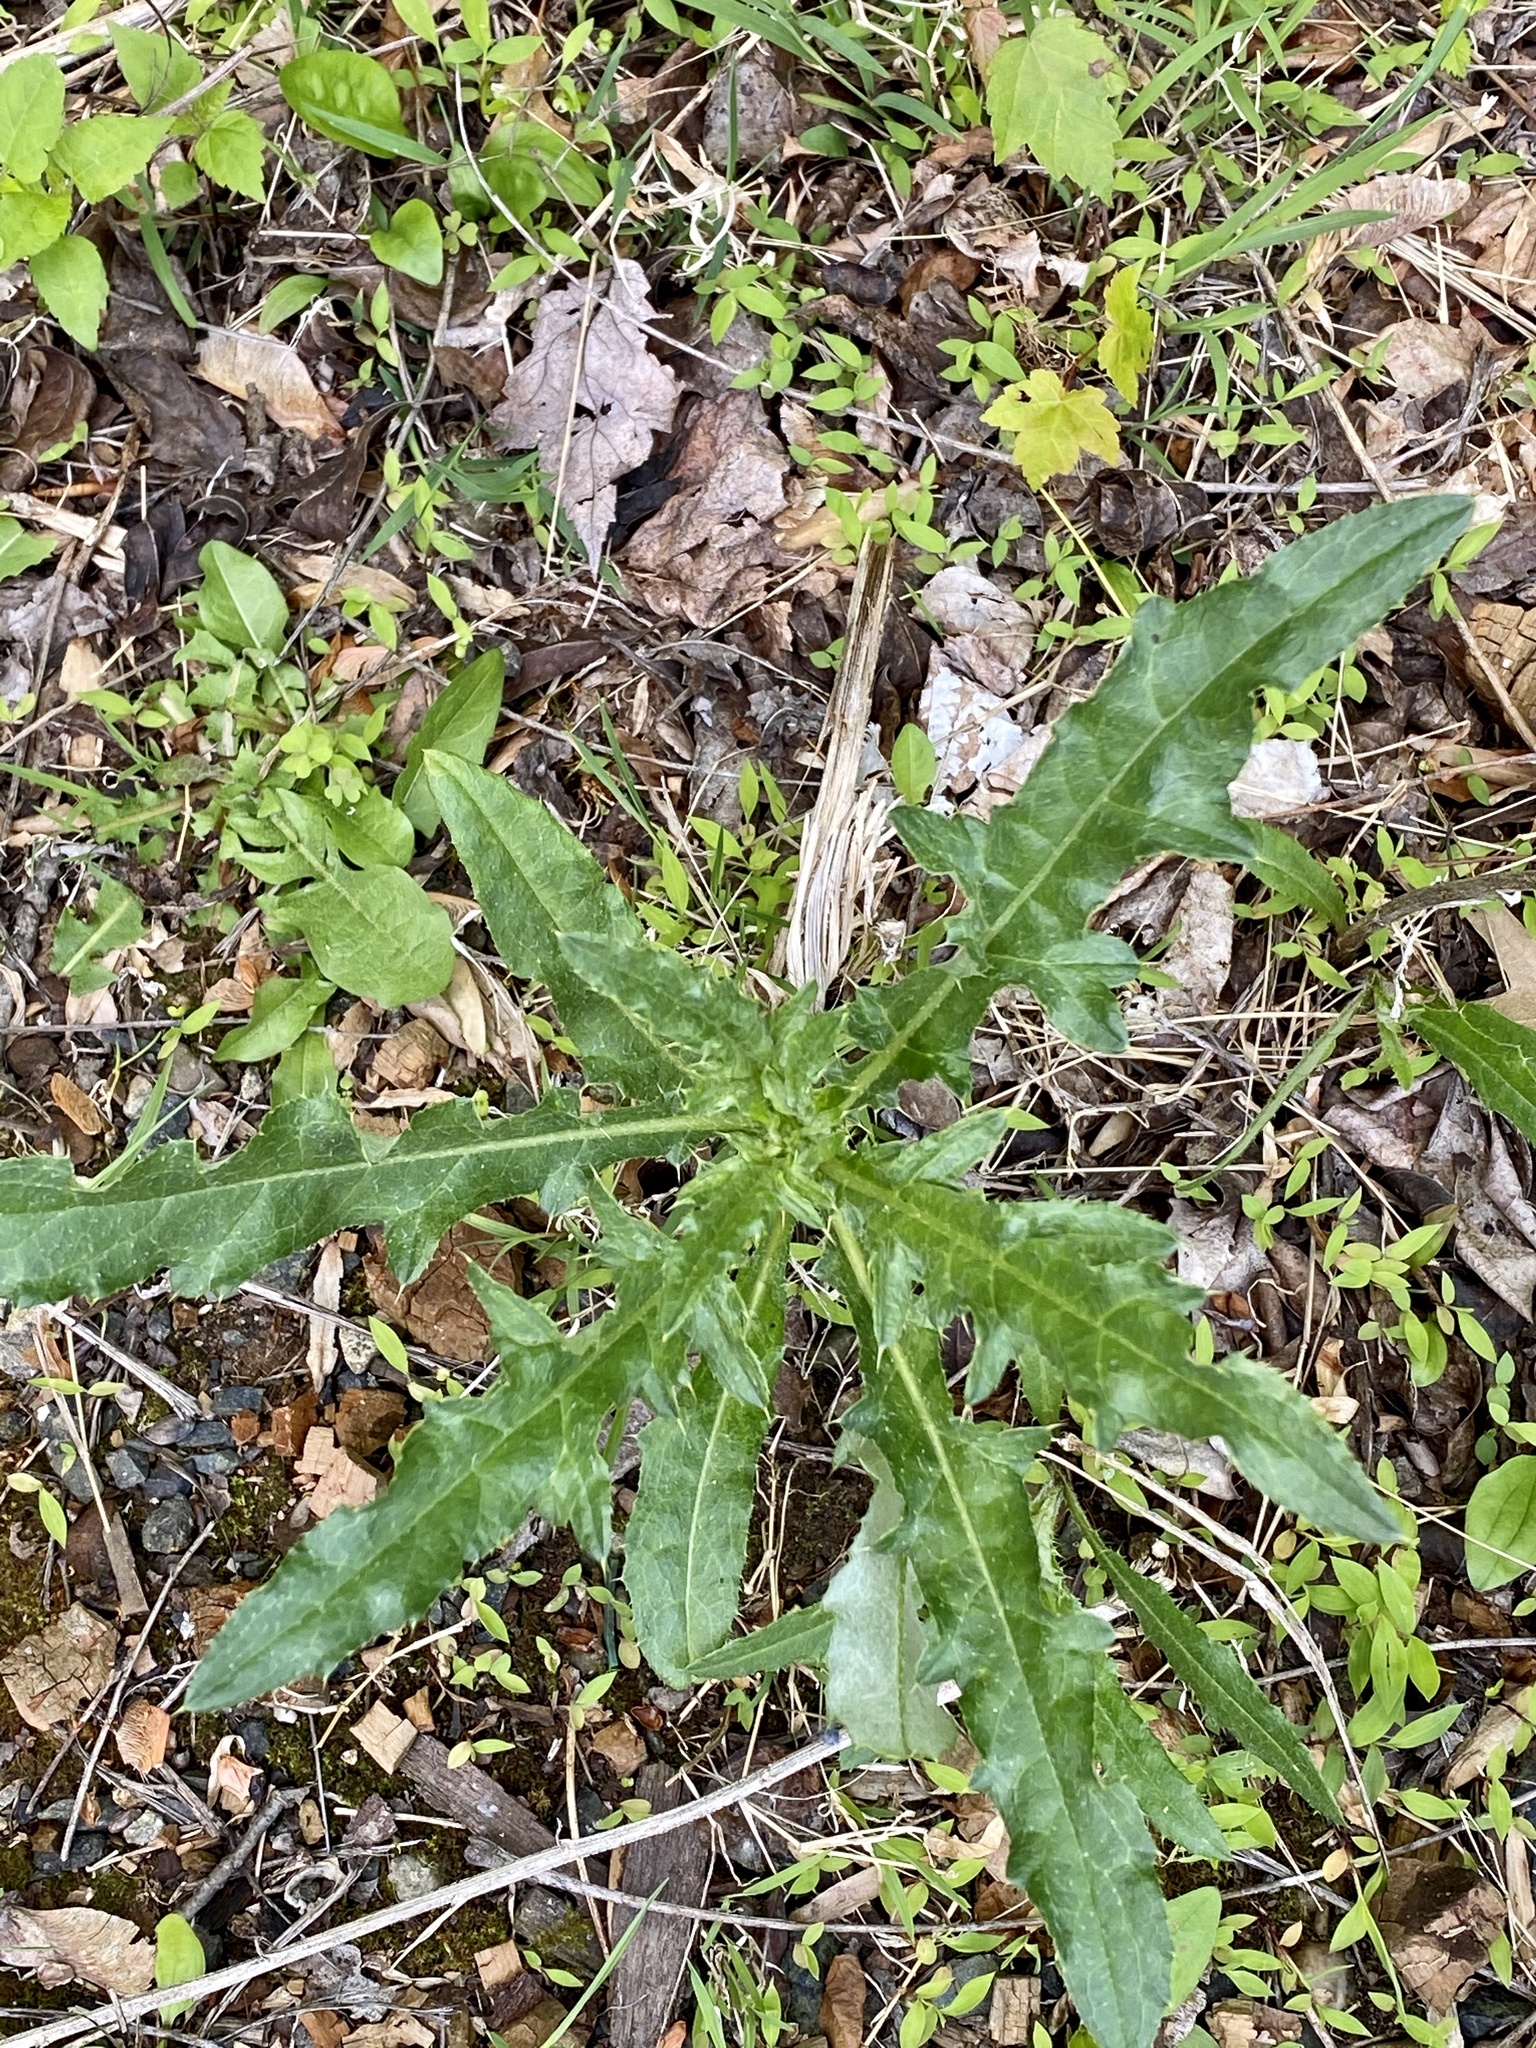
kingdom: Plantae
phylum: Tracheophyta
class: Magnoliopsida
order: Asterales
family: Asteraceae
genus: Cirsium
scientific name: Cirsium arvense
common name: Creeping thistle
